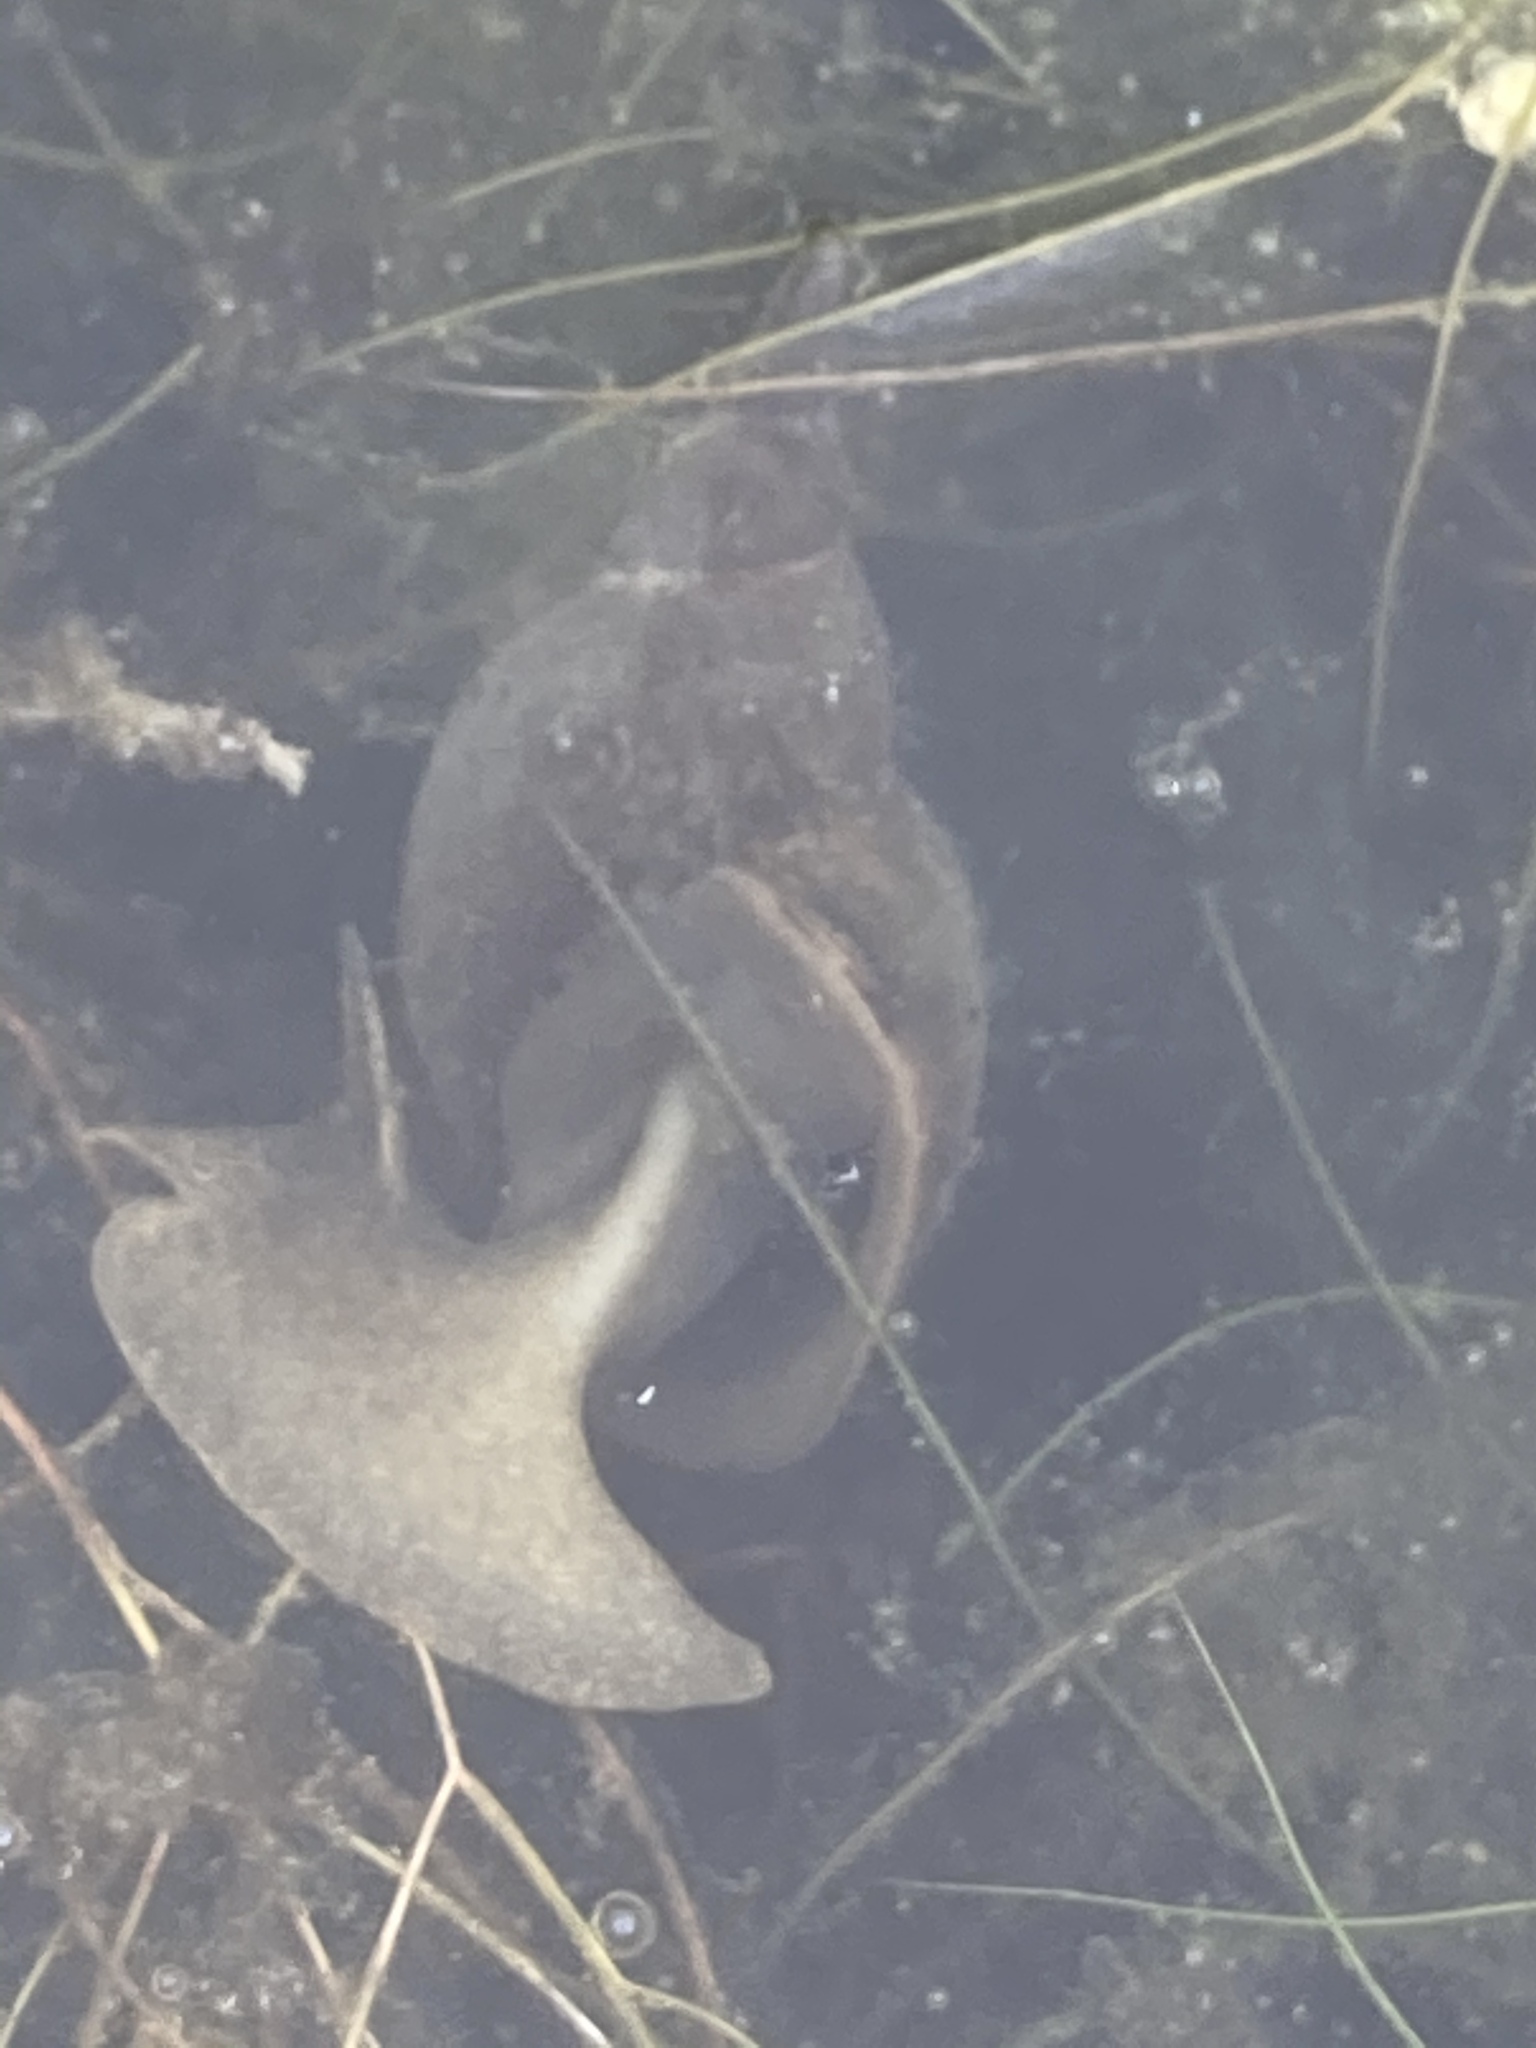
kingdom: Animalia
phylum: Mollusca
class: Gastropoda
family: Lymnaeidae
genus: Lymnaea
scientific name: Lymnaea stagnalis
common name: Great pond snail
